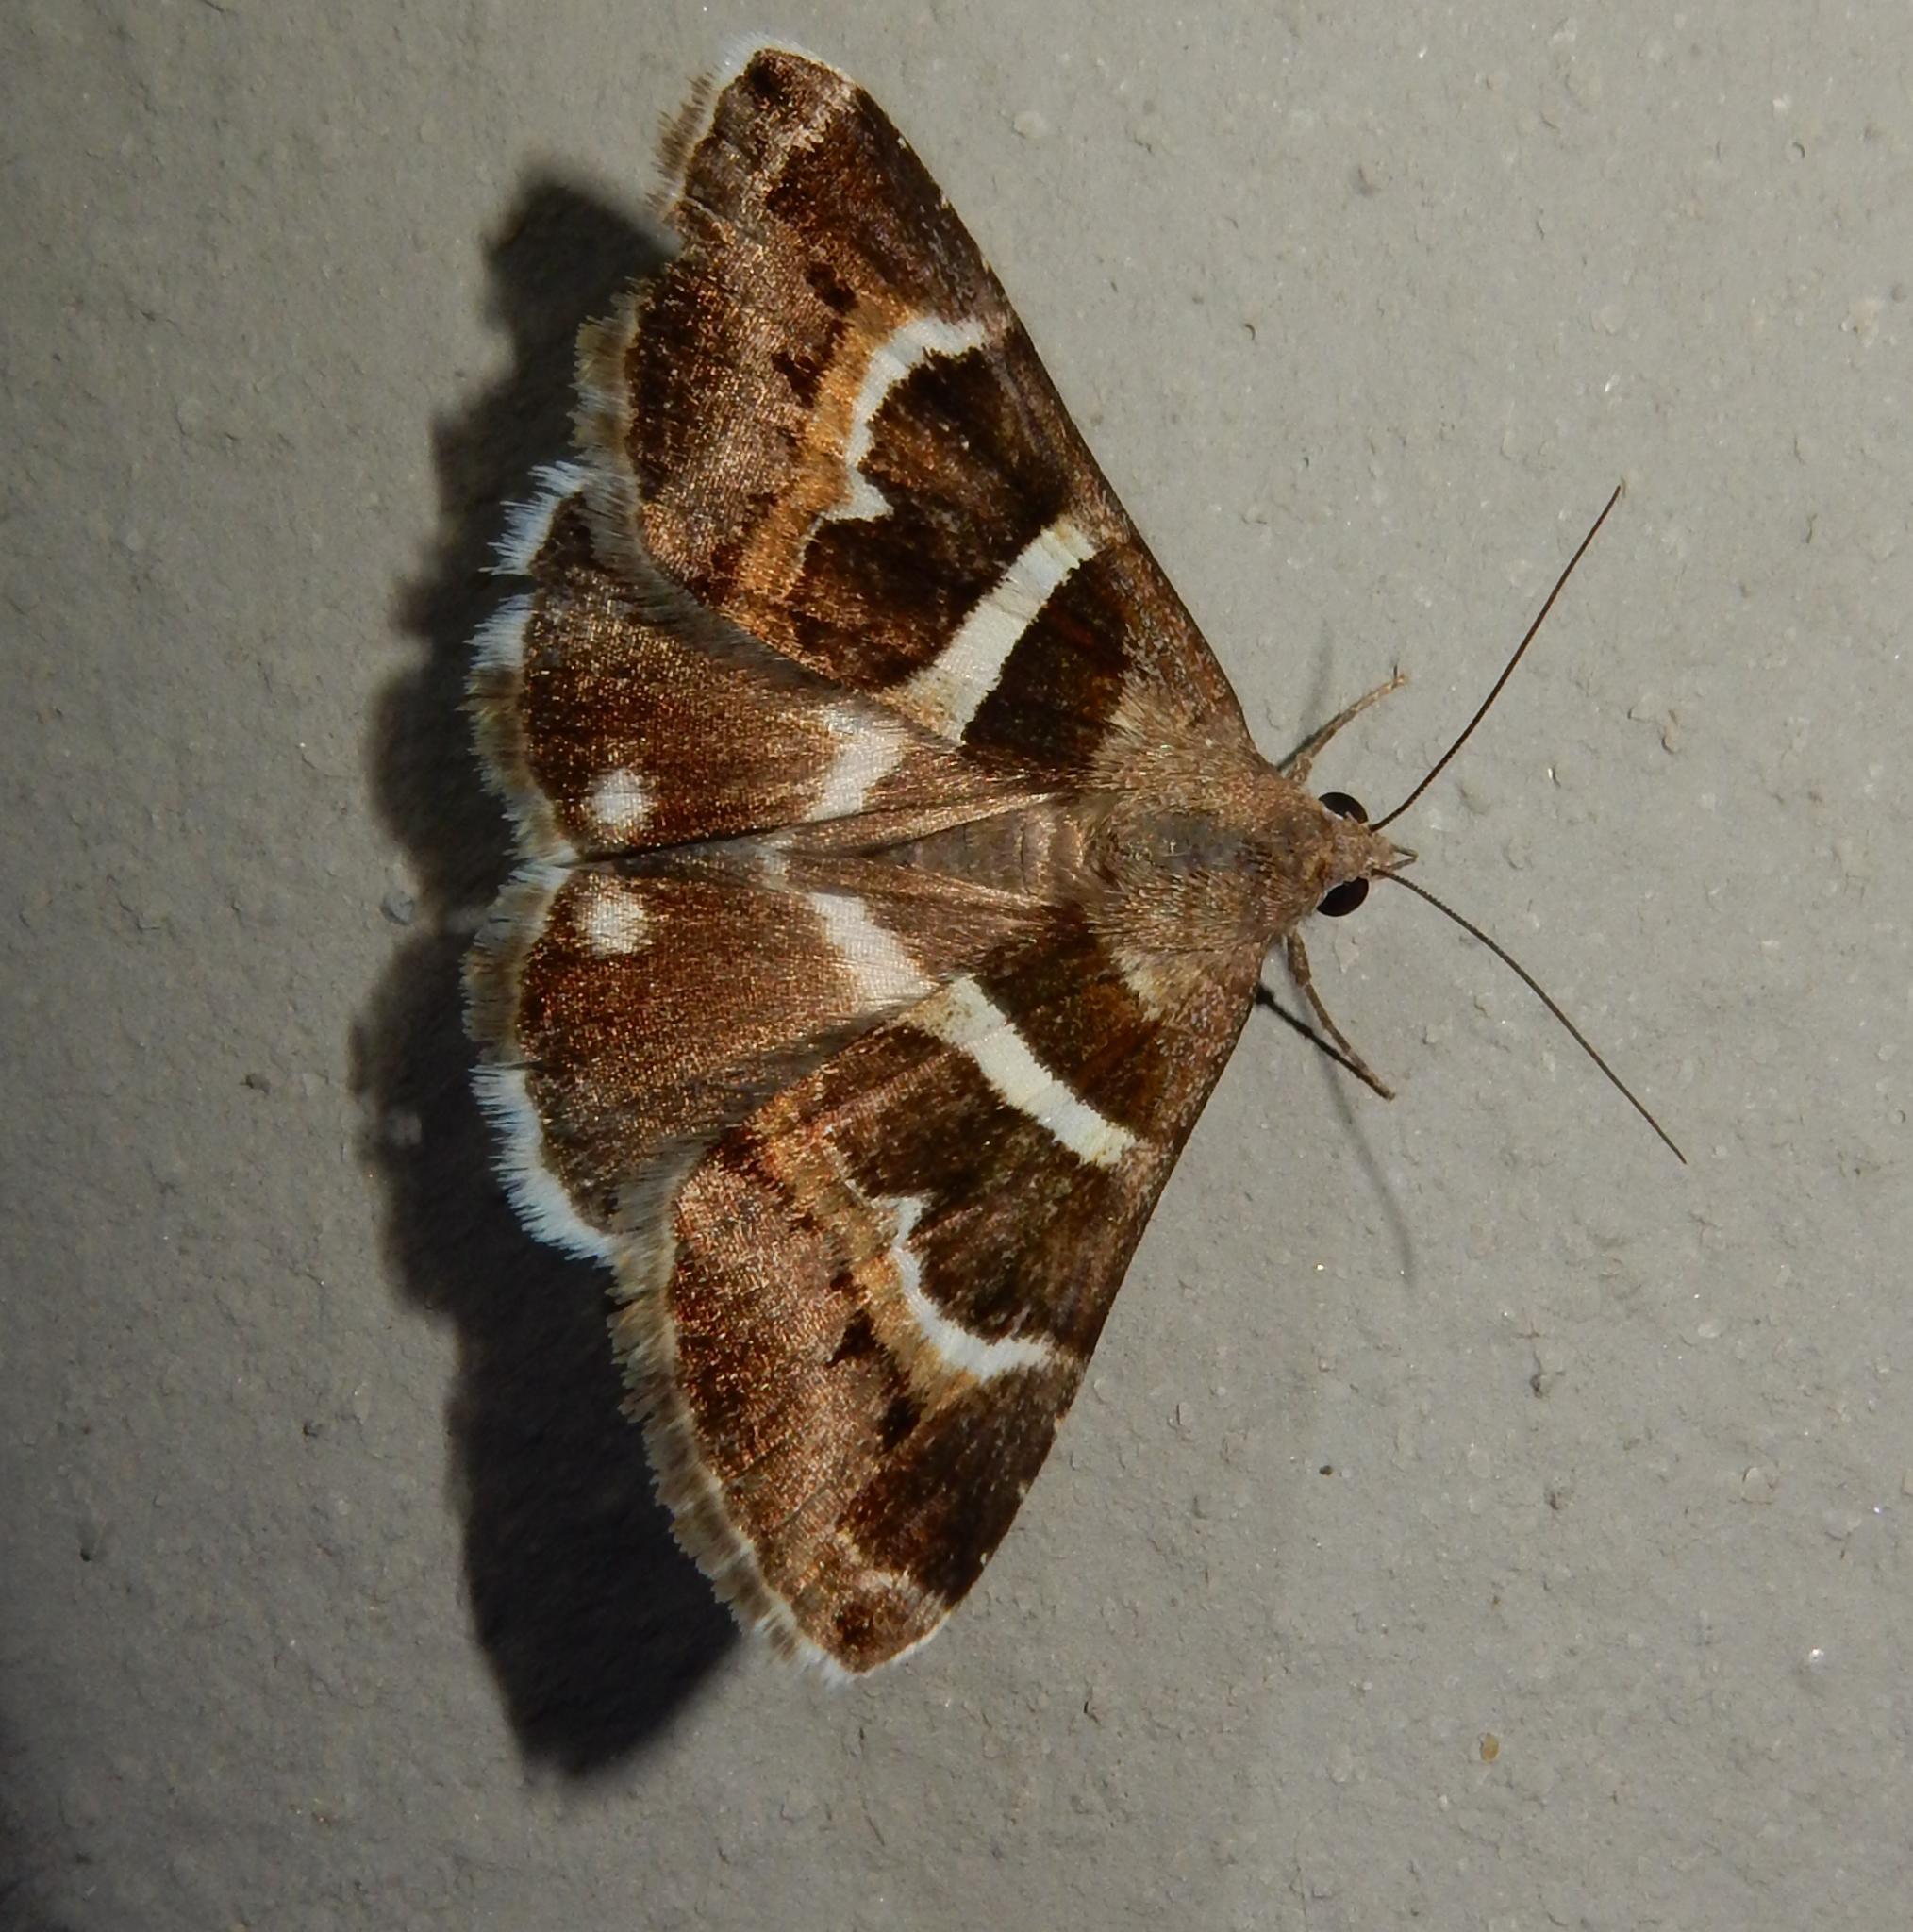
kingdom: Animalia
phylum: Arthropoda
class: Insecta
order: Lepidoptera
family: Erebidae
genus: Grammodes
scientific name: Grammodes stolida
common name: Geometrician
